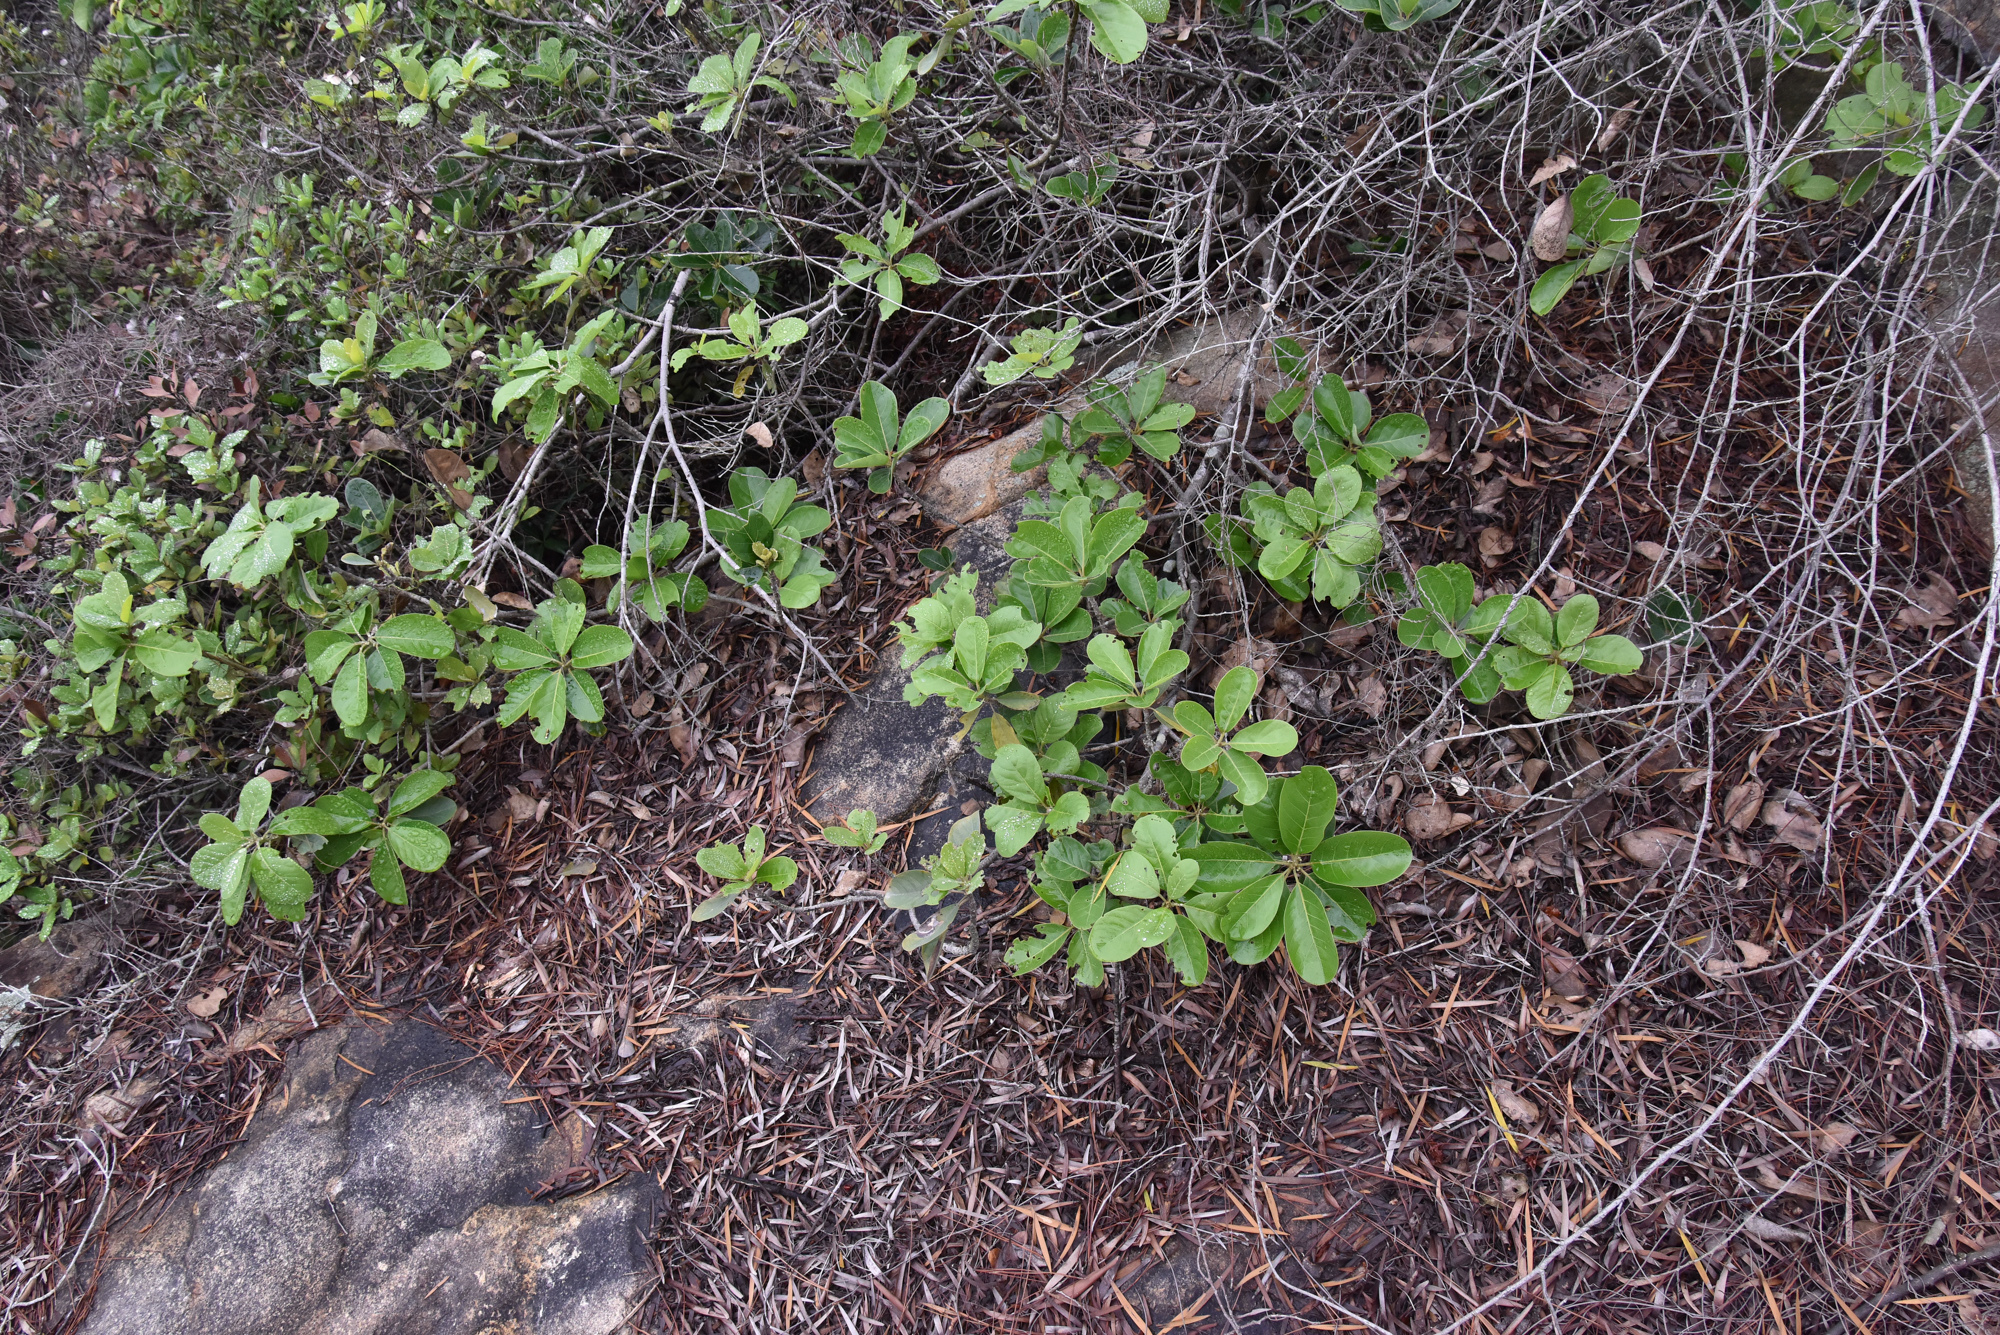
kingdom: Plantae
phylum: Tracheophyta
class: Magnoliopsida
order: Laurales
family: Lauraceae
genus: Litsea
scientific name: Litsea glutinosa
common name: Indian-laurel
